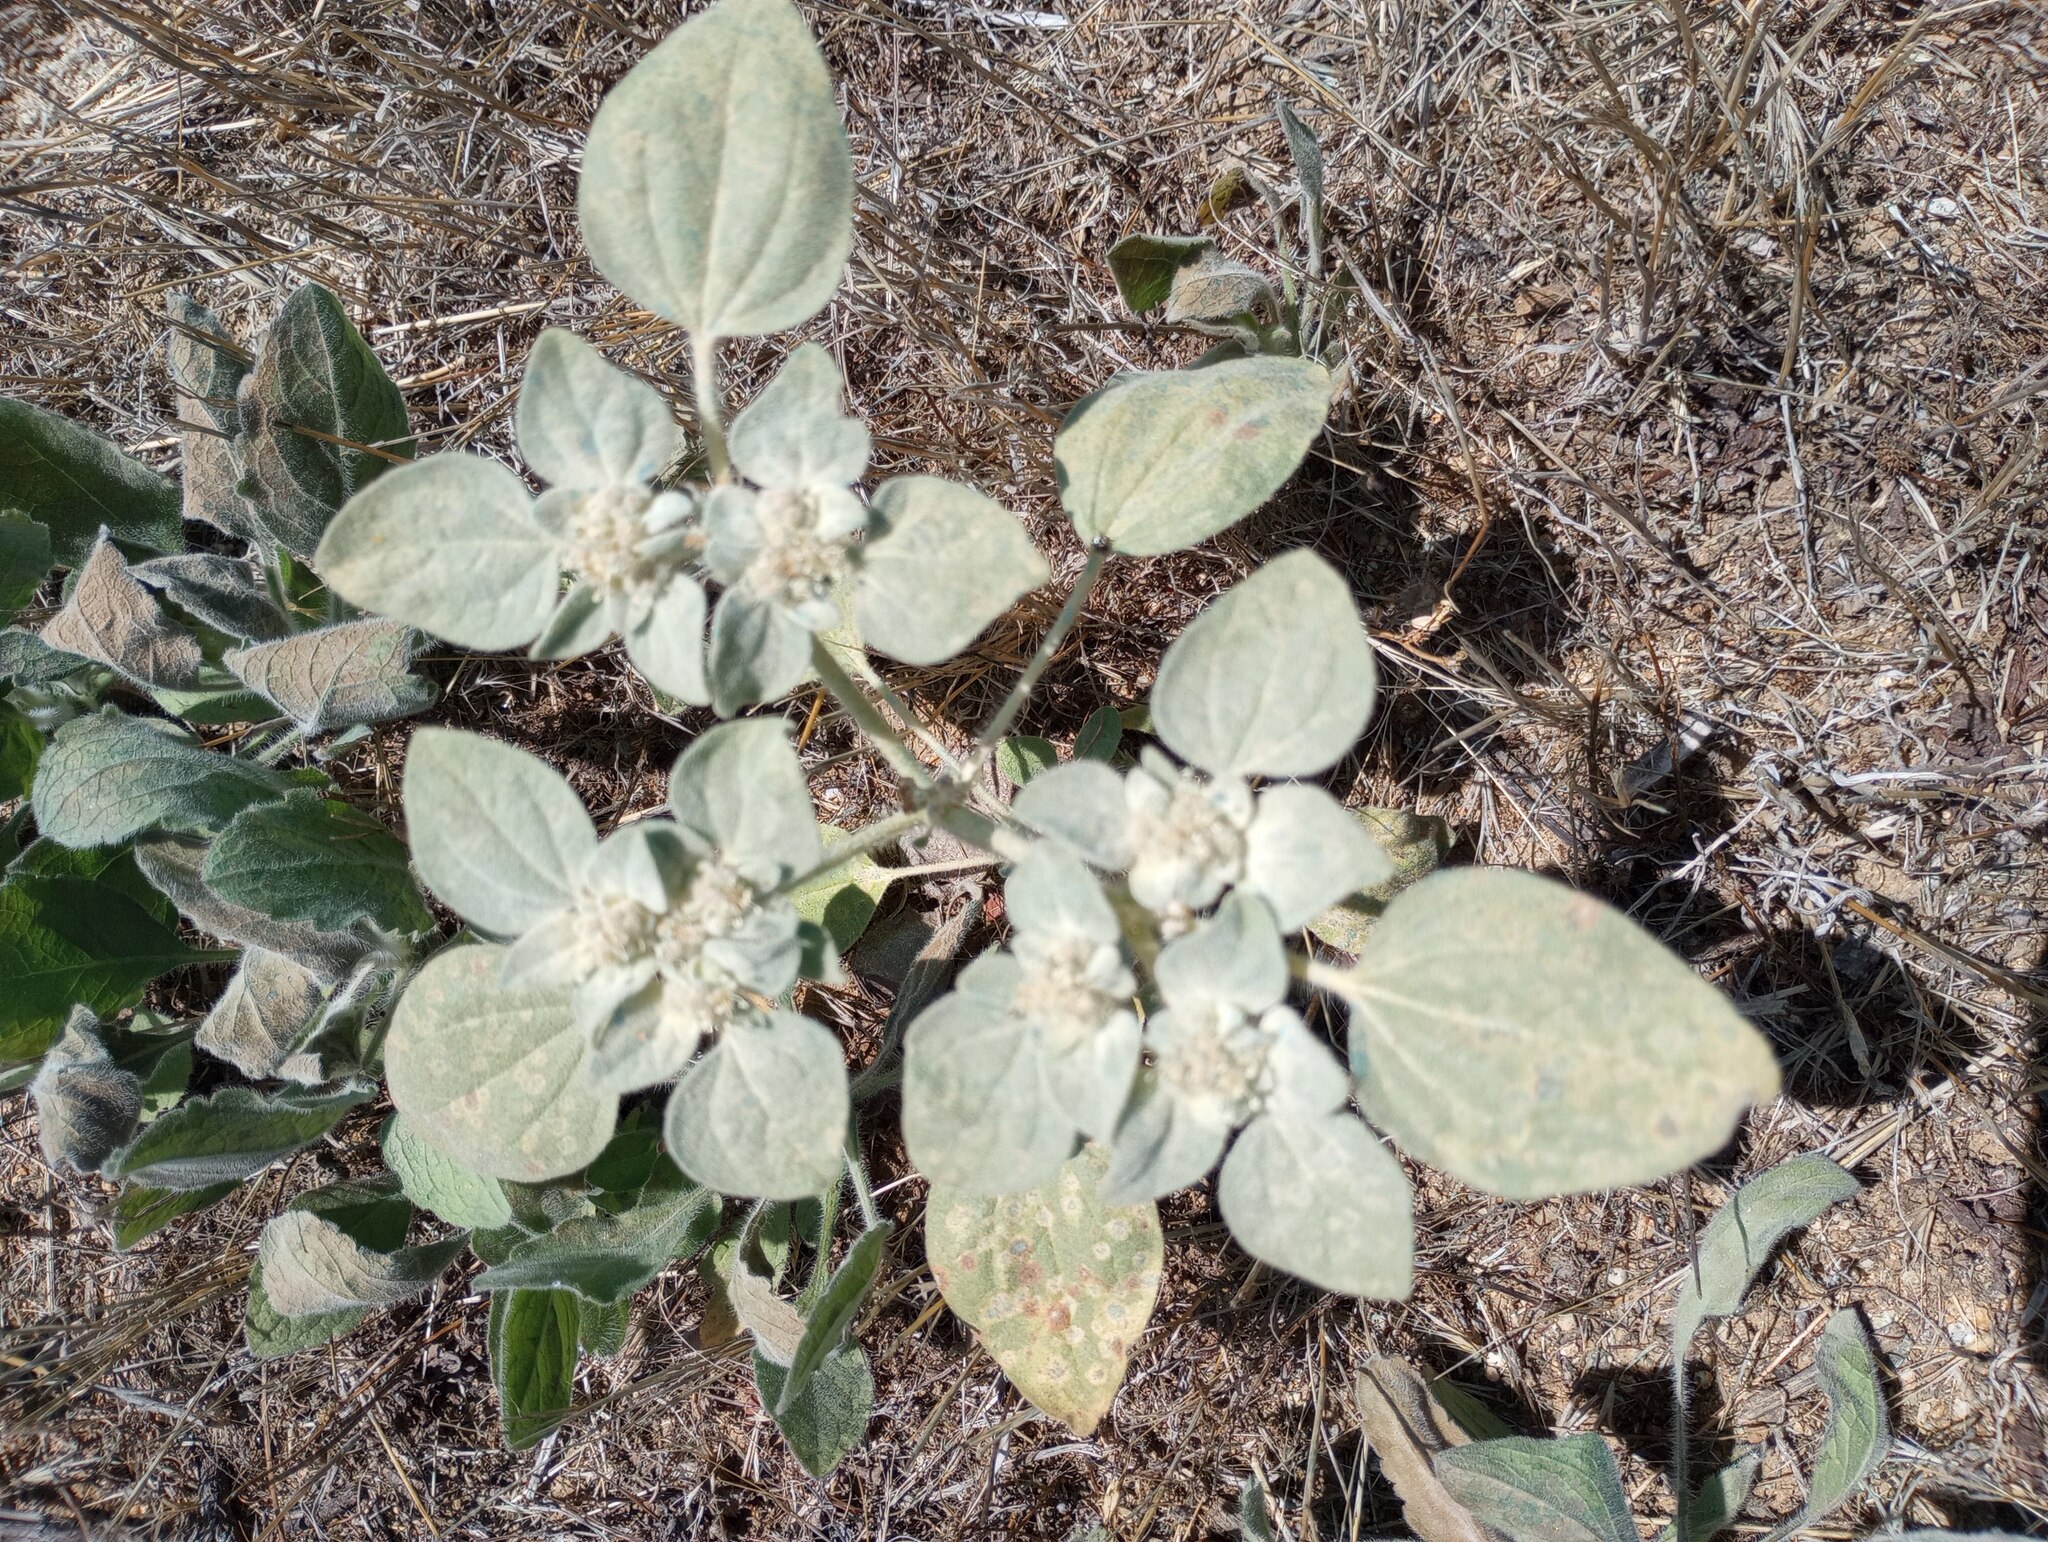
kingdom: Plantae
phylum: Tracheophyta
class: Magnoliopsida
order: Malpighiales
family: Euphorbiaceae
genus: Croton
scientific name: Croton setiger
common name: Dove weed
